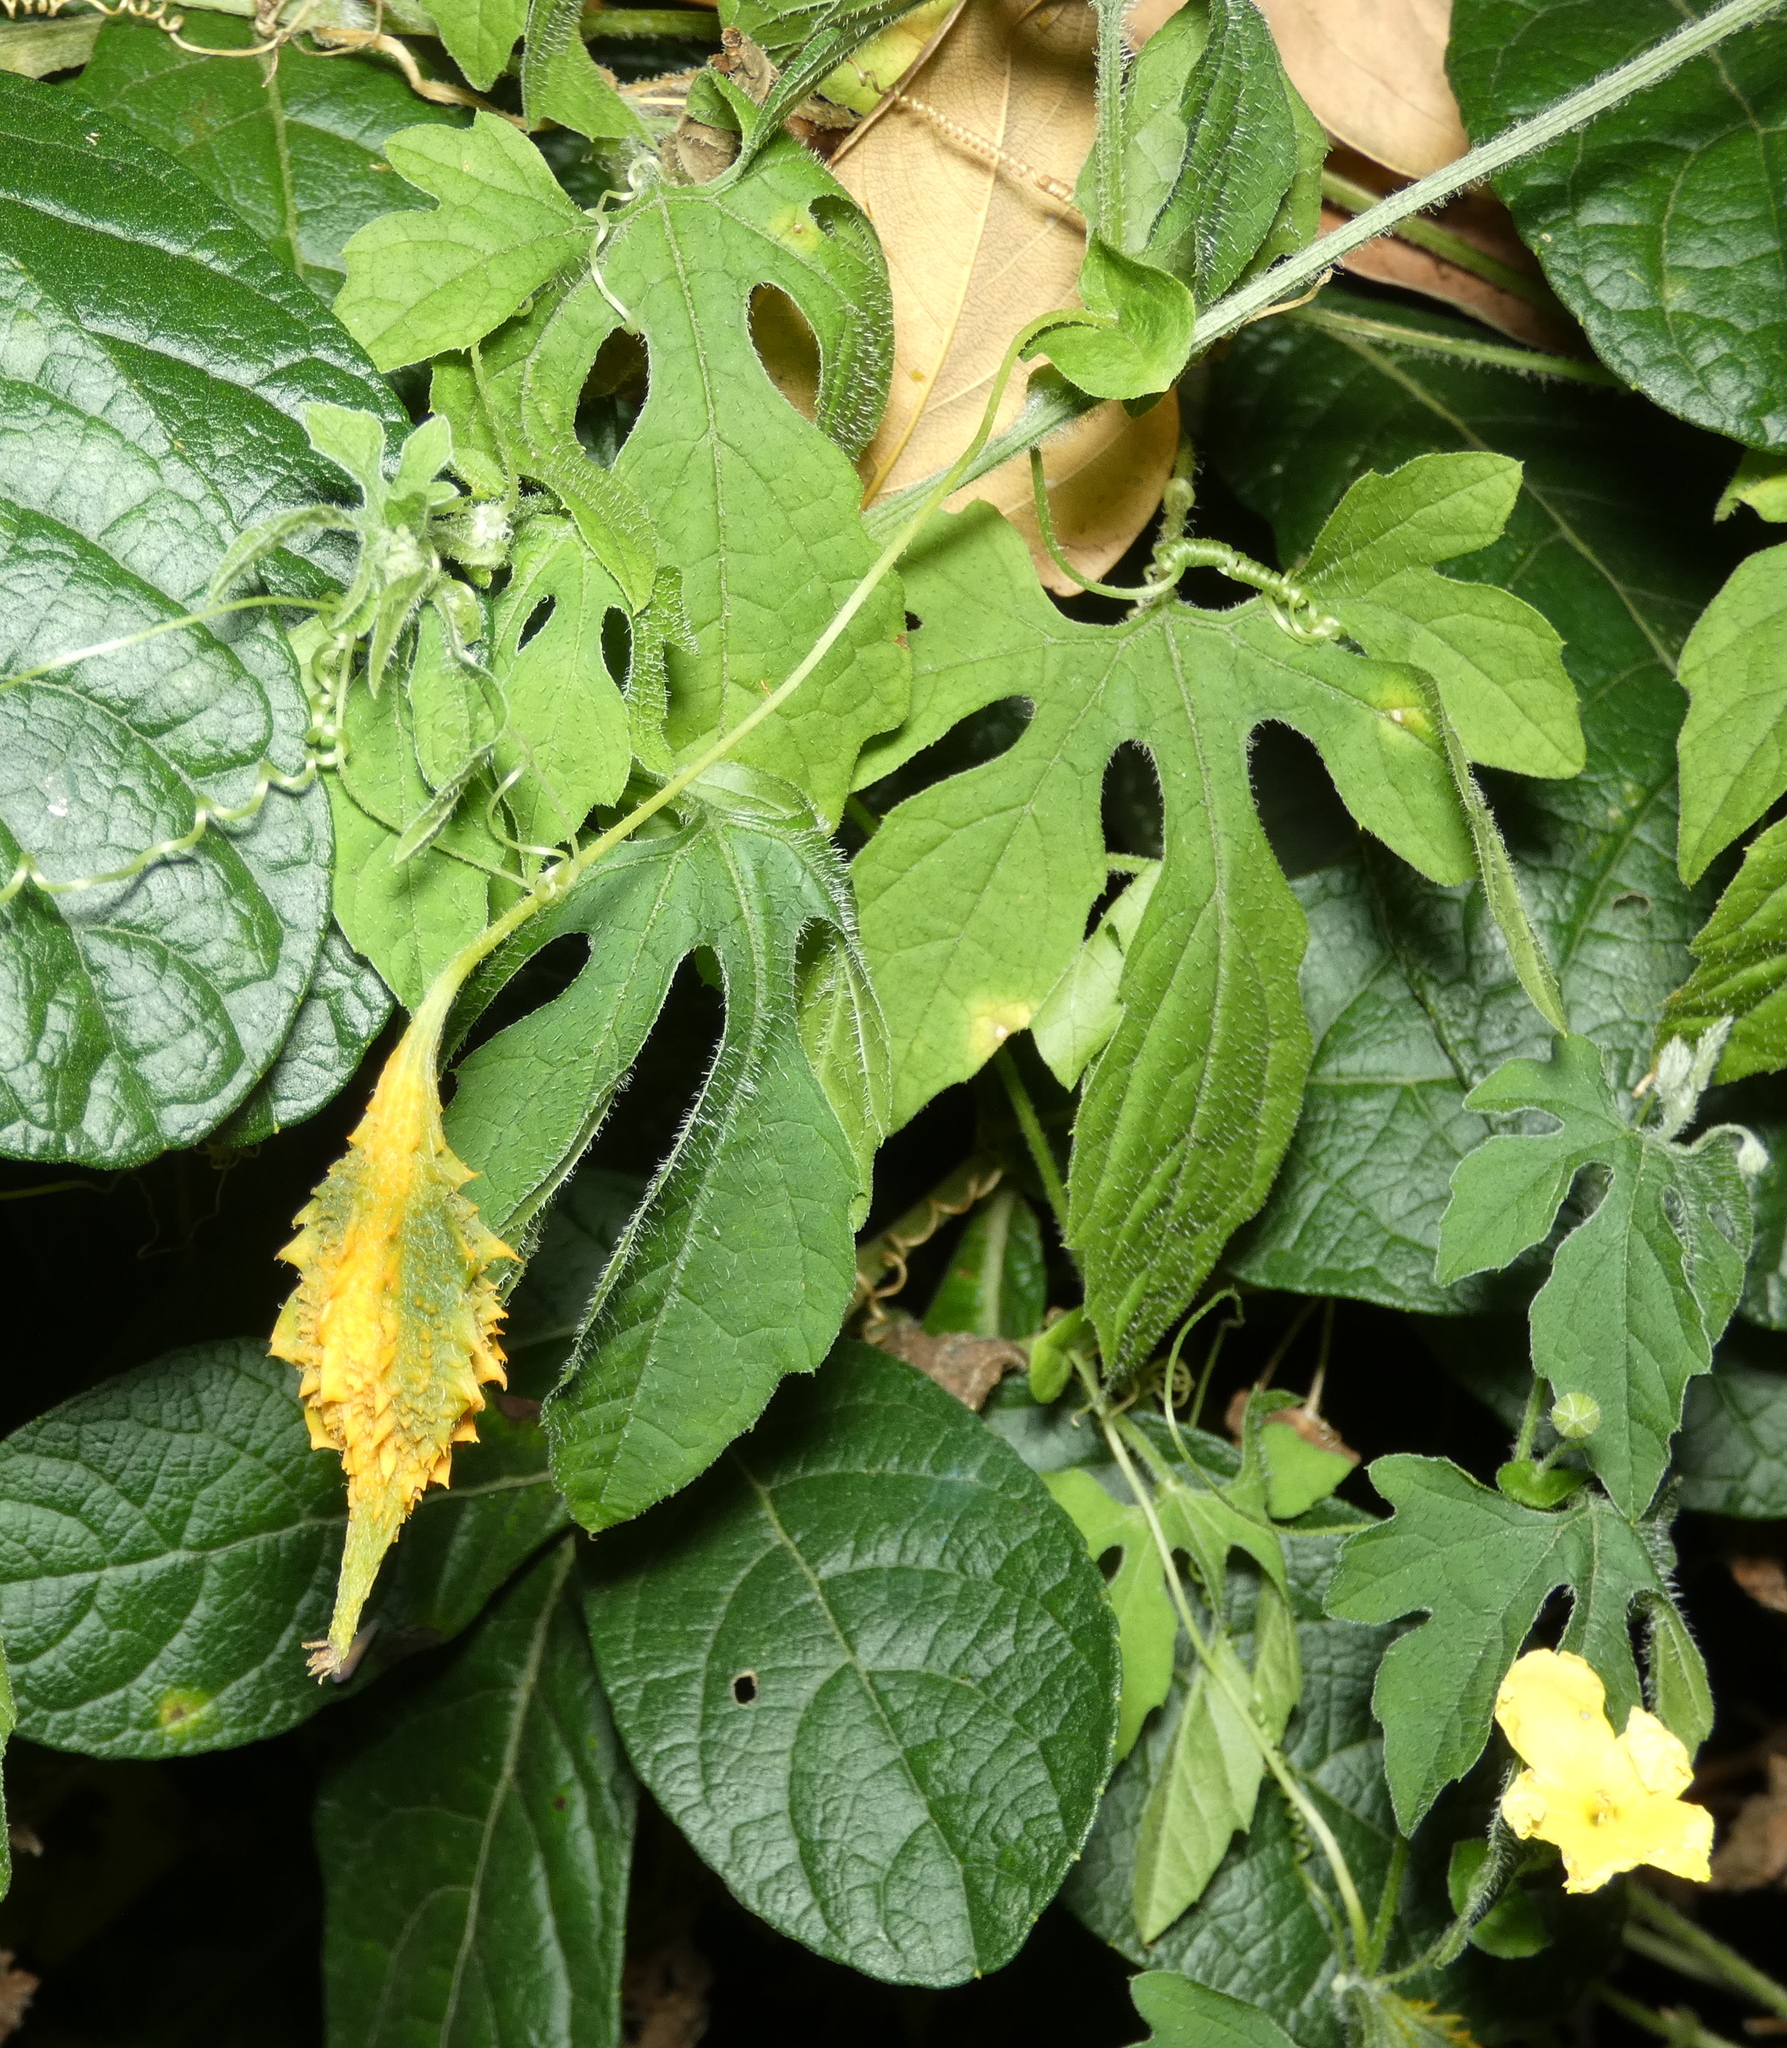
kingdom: Plantae
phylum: Tracheophyta
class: Magnoliopsida
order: Cucurbitales
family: Cucurbitaceae
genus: Momordica
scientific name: Momordica charantia
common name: Balsampear
